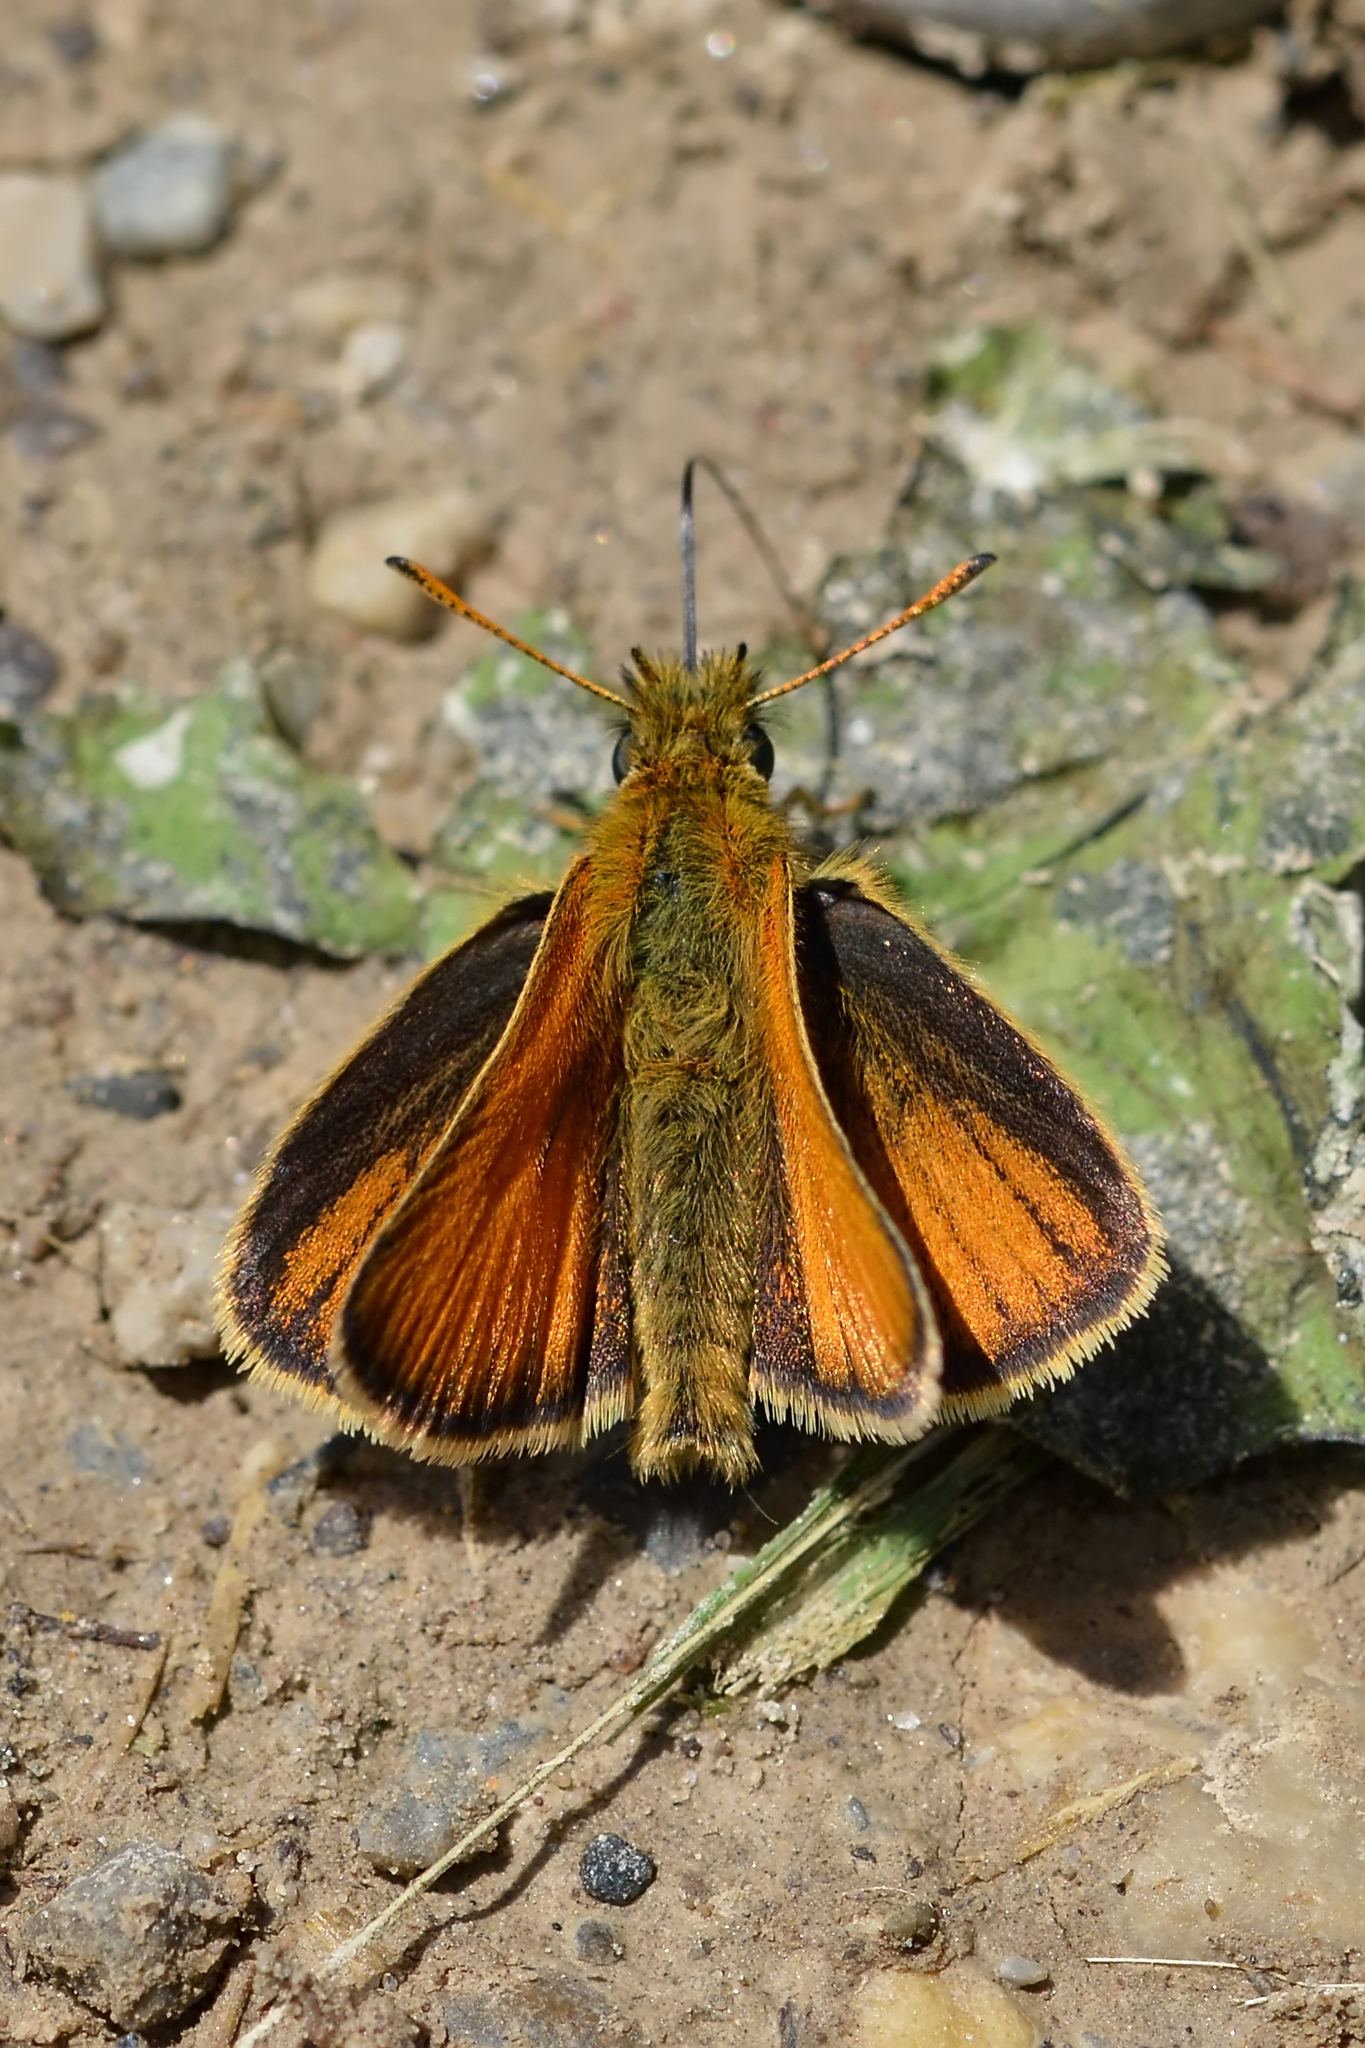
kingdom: Animalia
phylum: Arthropoda
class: Insecta
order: Lepidoptera
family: Hesperiidae
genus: Thymelicus
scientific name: Thymelicus lineola
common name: Essex skipper
